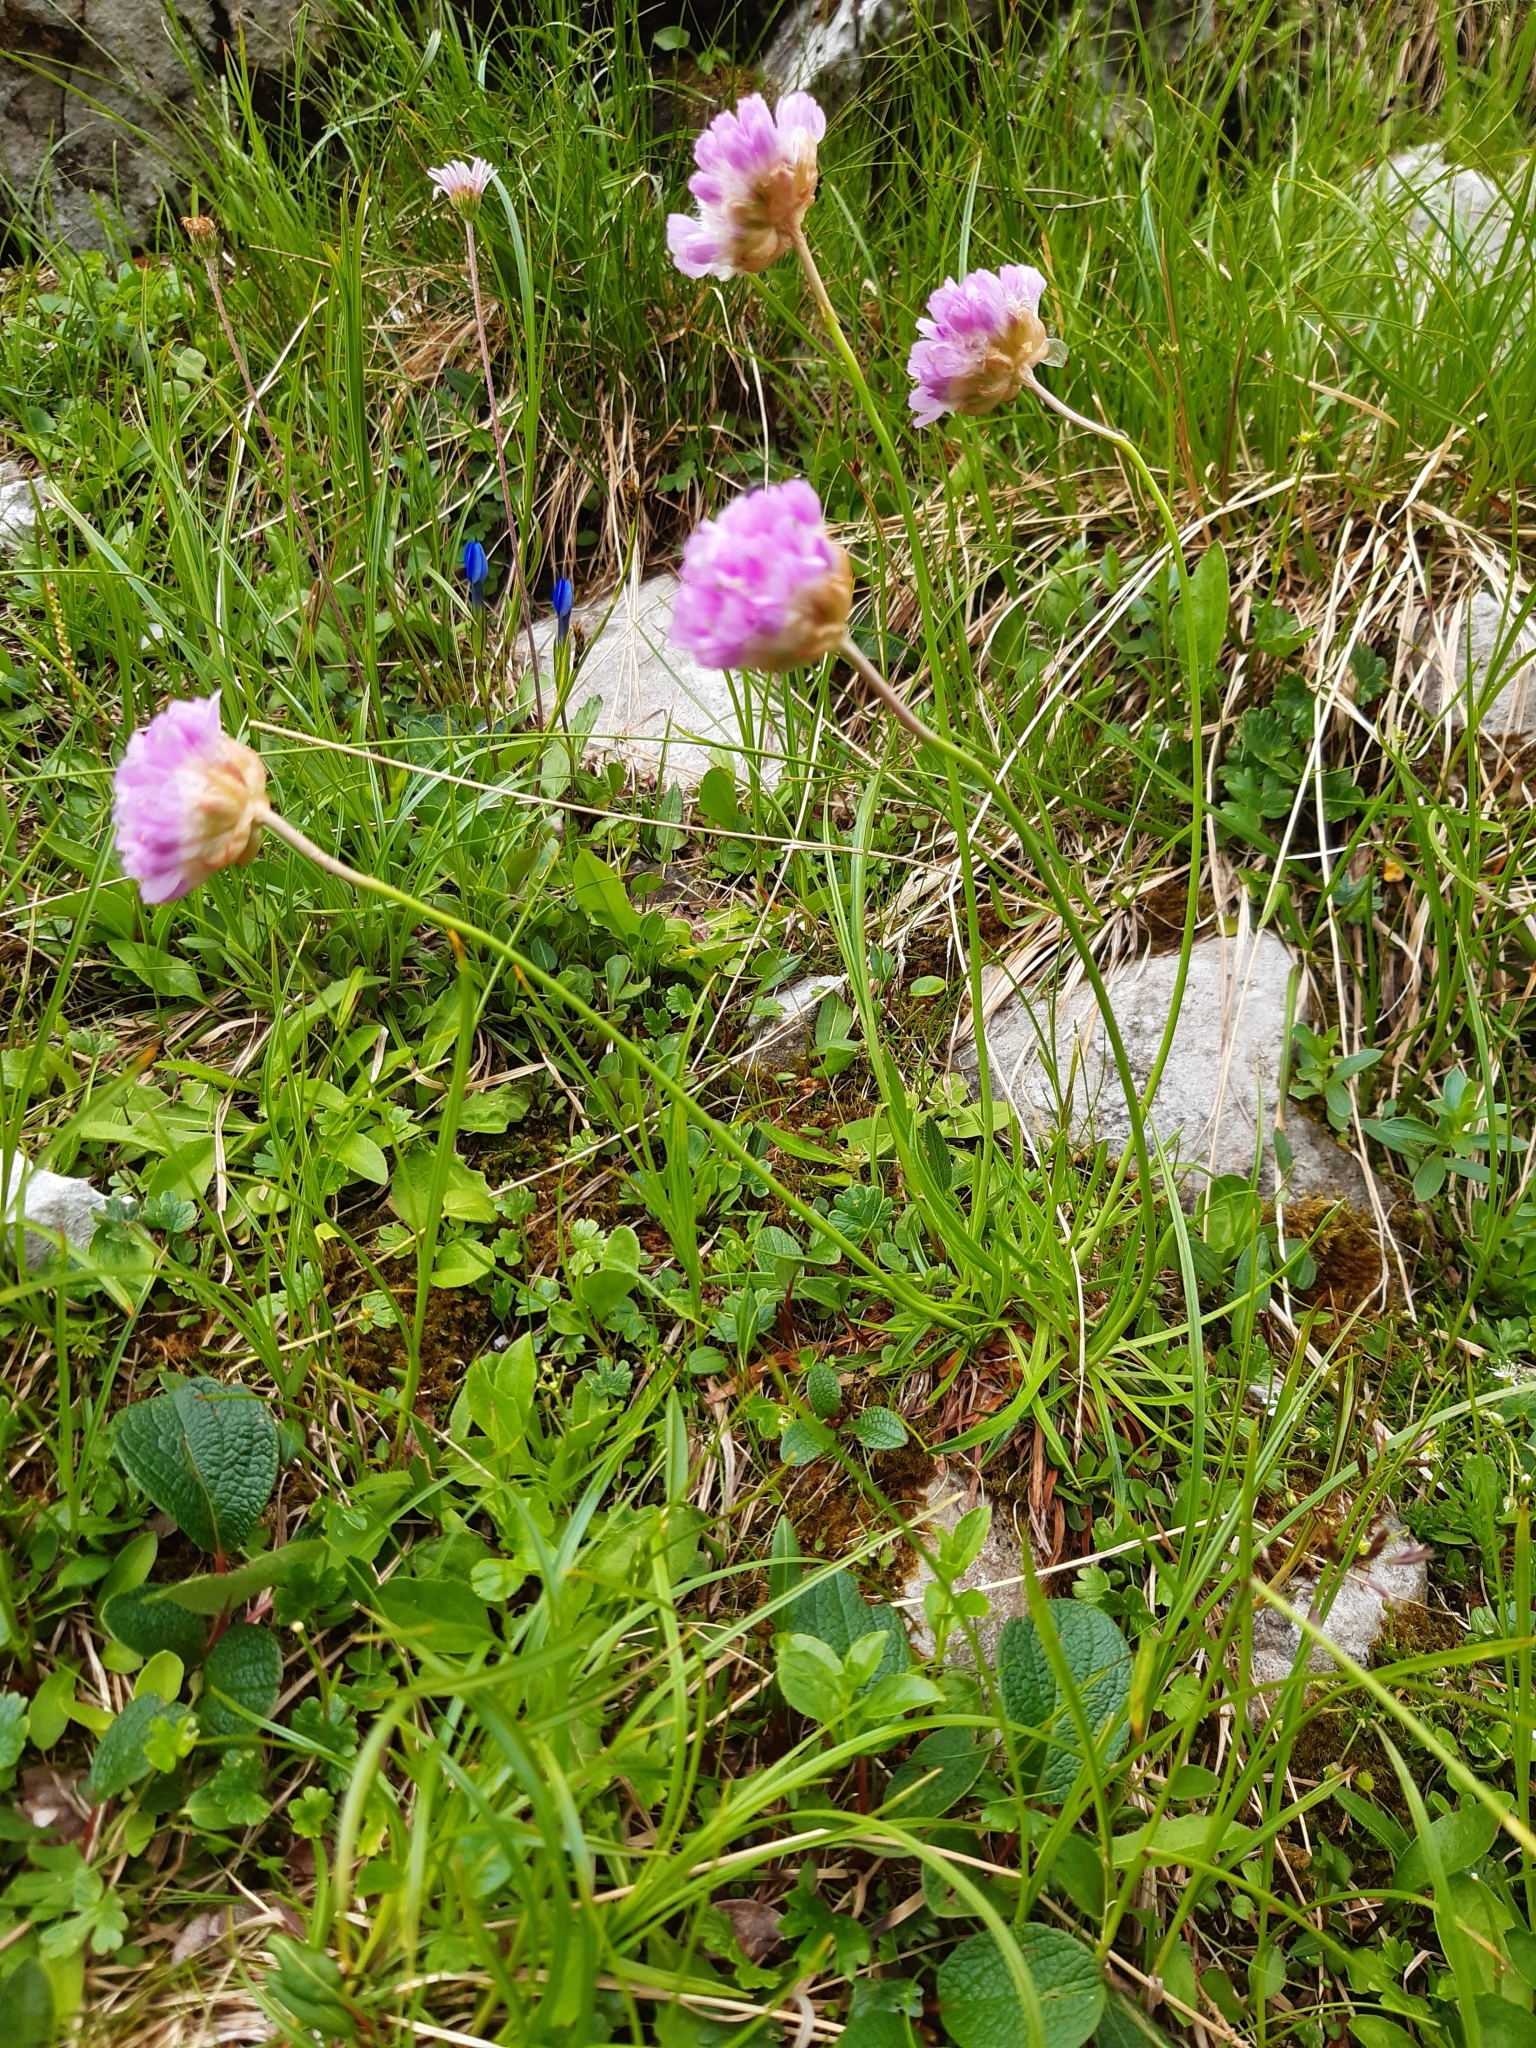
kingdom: Plantae
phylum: Tracheophyta
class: Magnoliopsida
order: Caryophyllales
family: Plumbaginaceae
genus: Armeria
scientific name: Armeria alpina
